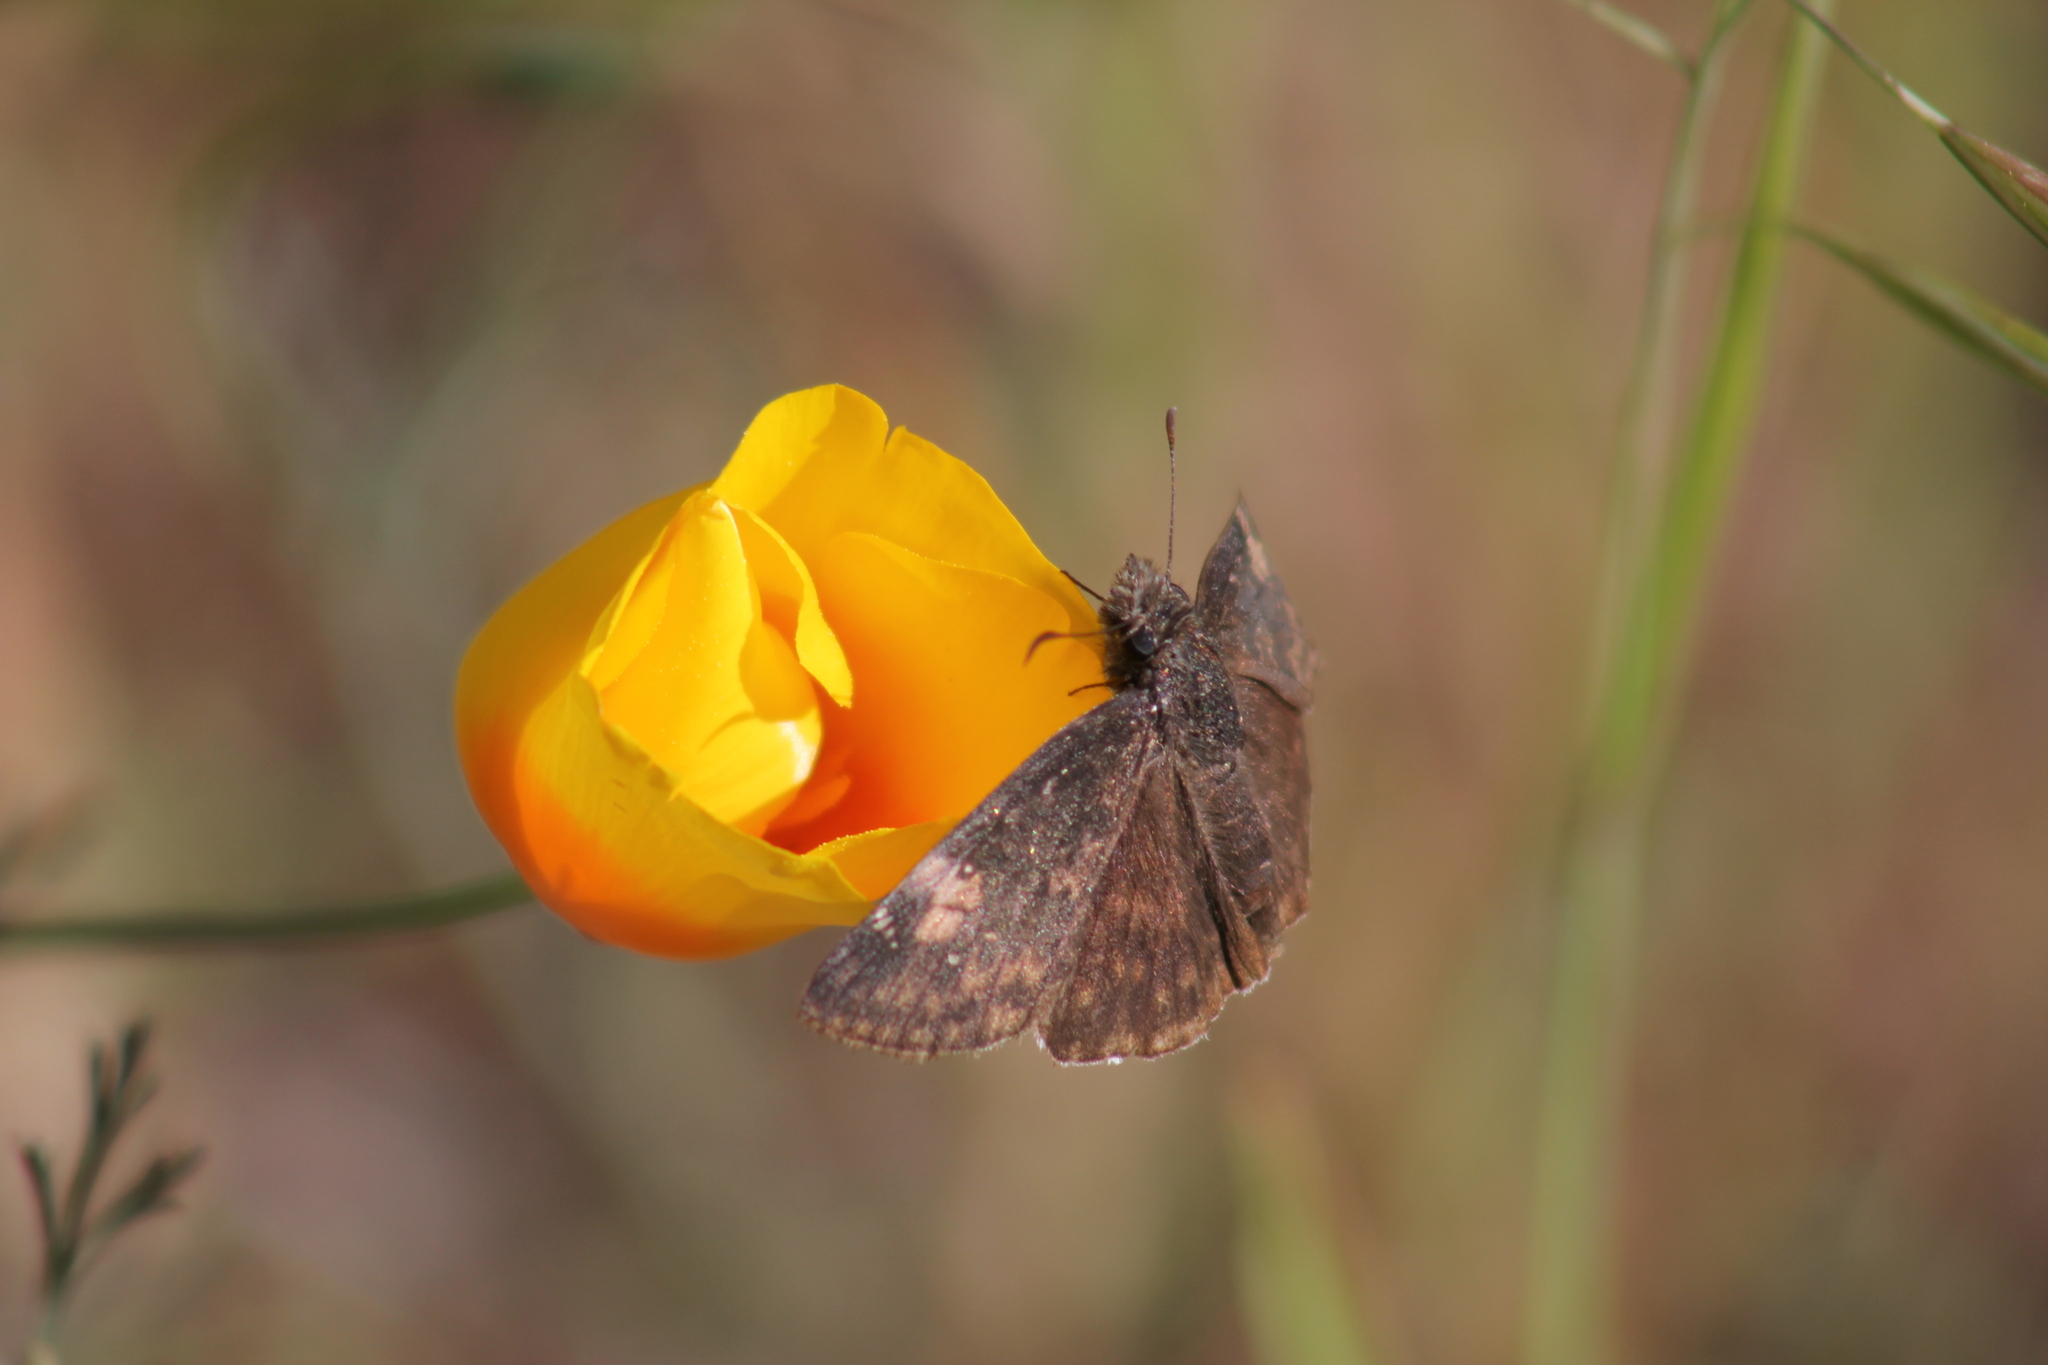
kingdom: Animalia
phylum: Arthropoda
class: Insecta
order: Lepidoptera
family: Hesperiidae
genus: Erynnis
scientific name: Erynnis funeralis
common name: Funereal duskywing
